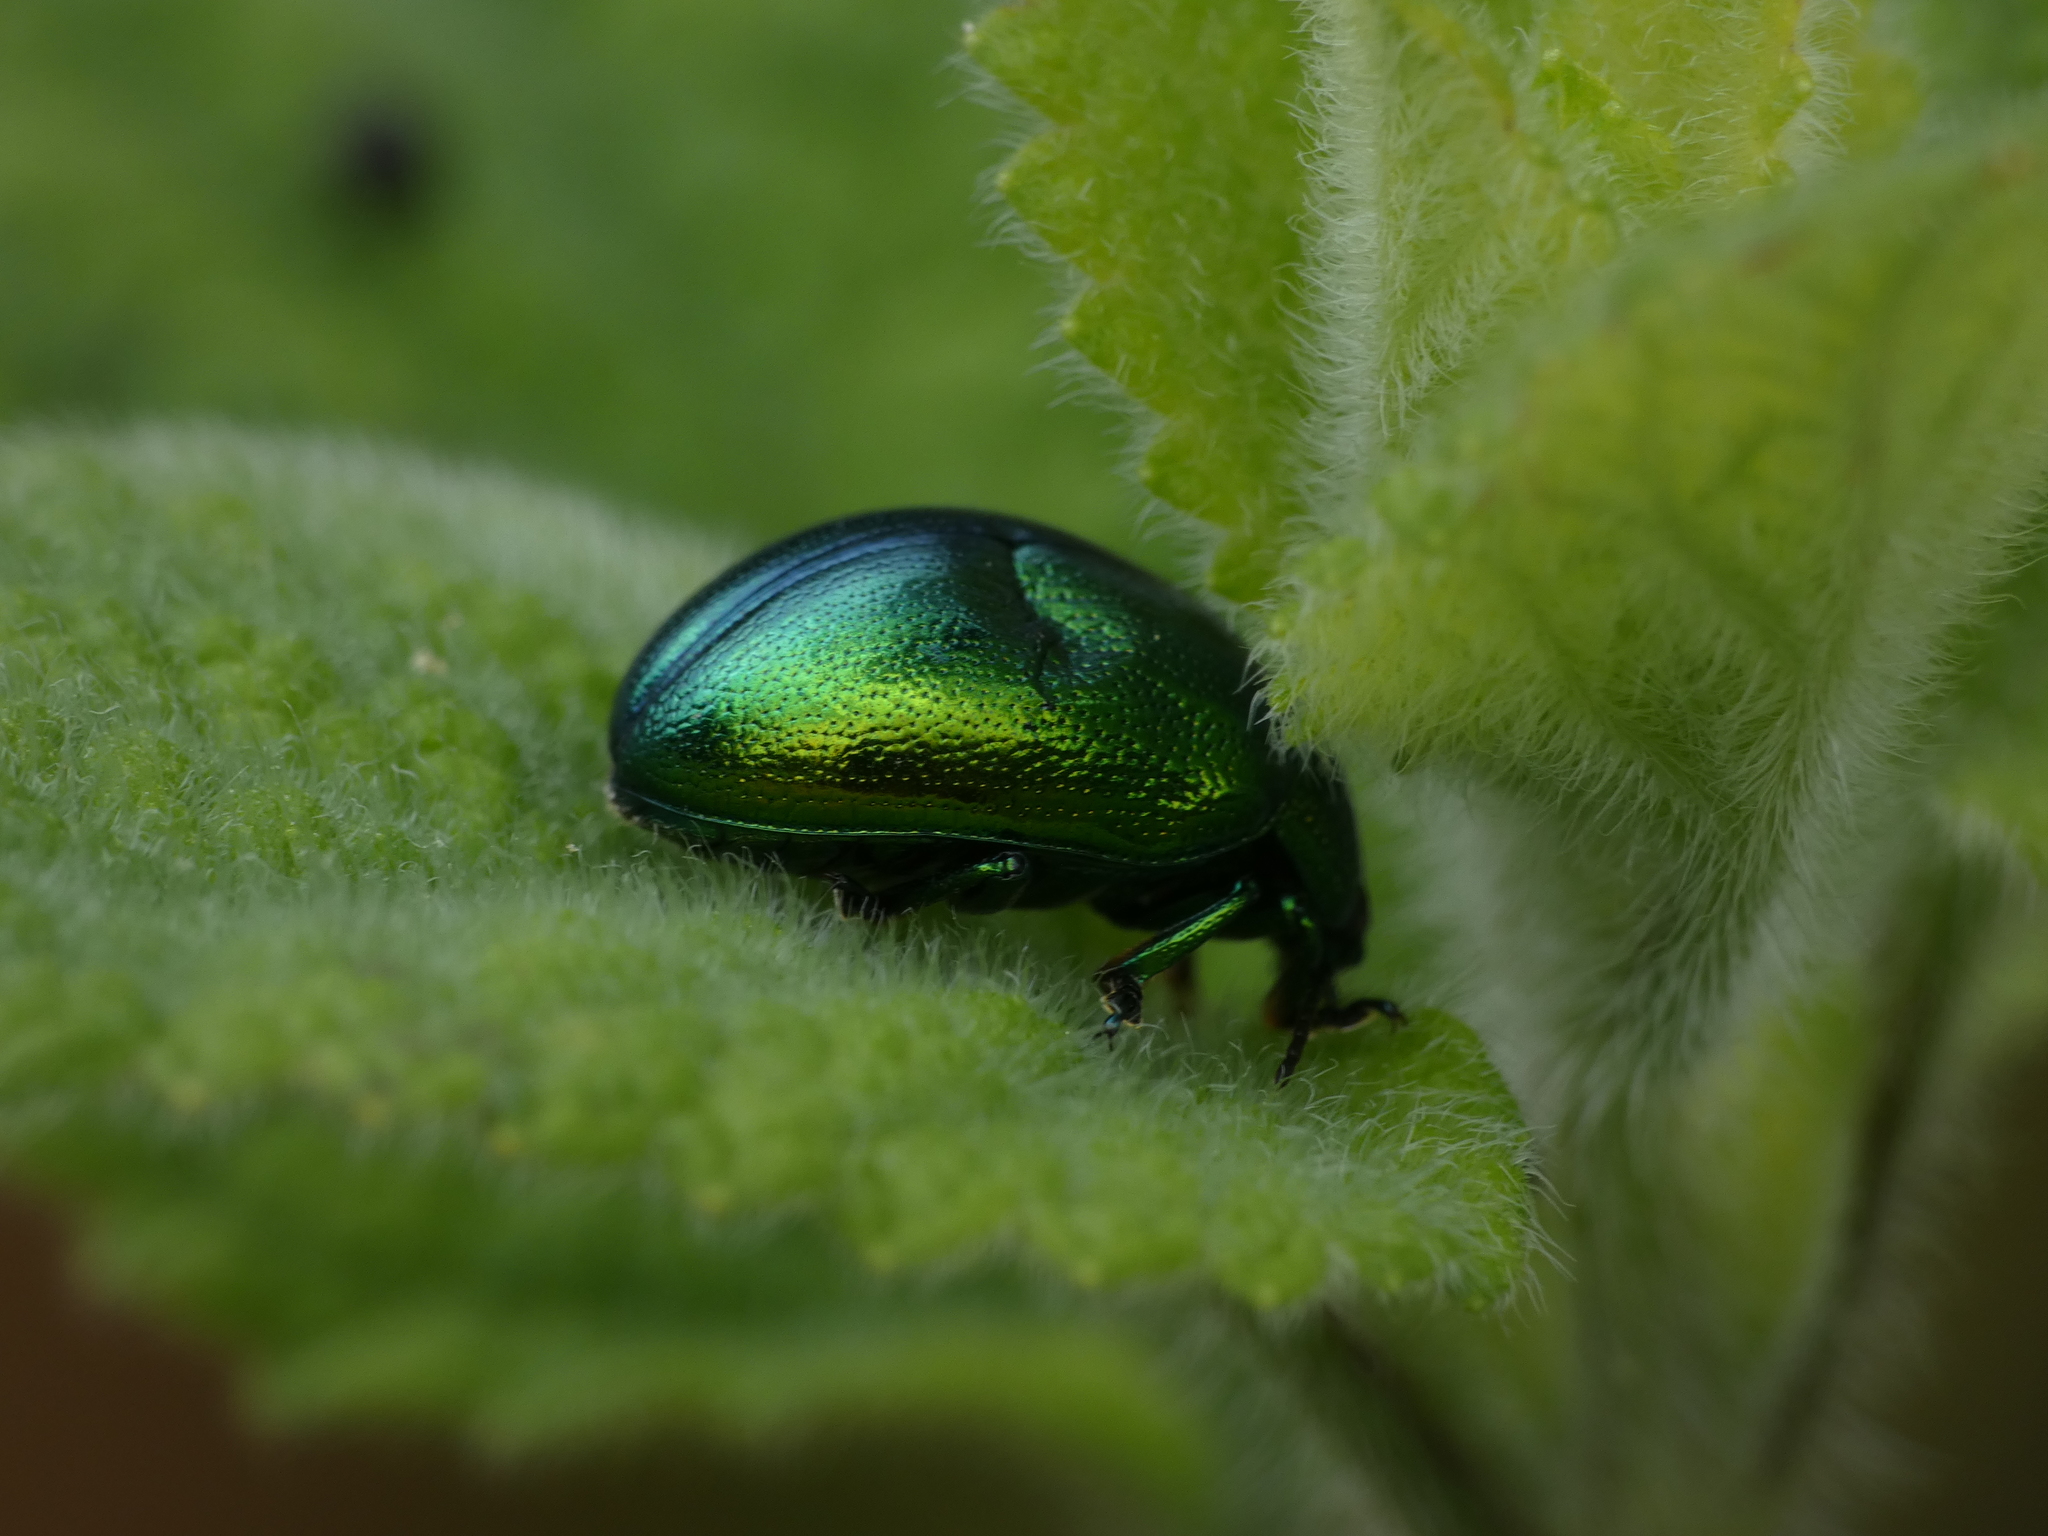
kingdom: Animalia
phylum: Arthropoda
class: Insecta
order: Coleoptera
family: Chrysomelidae
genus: Chrysolina
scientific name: Chrysolina herbacea
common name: Mint leaf beatle
